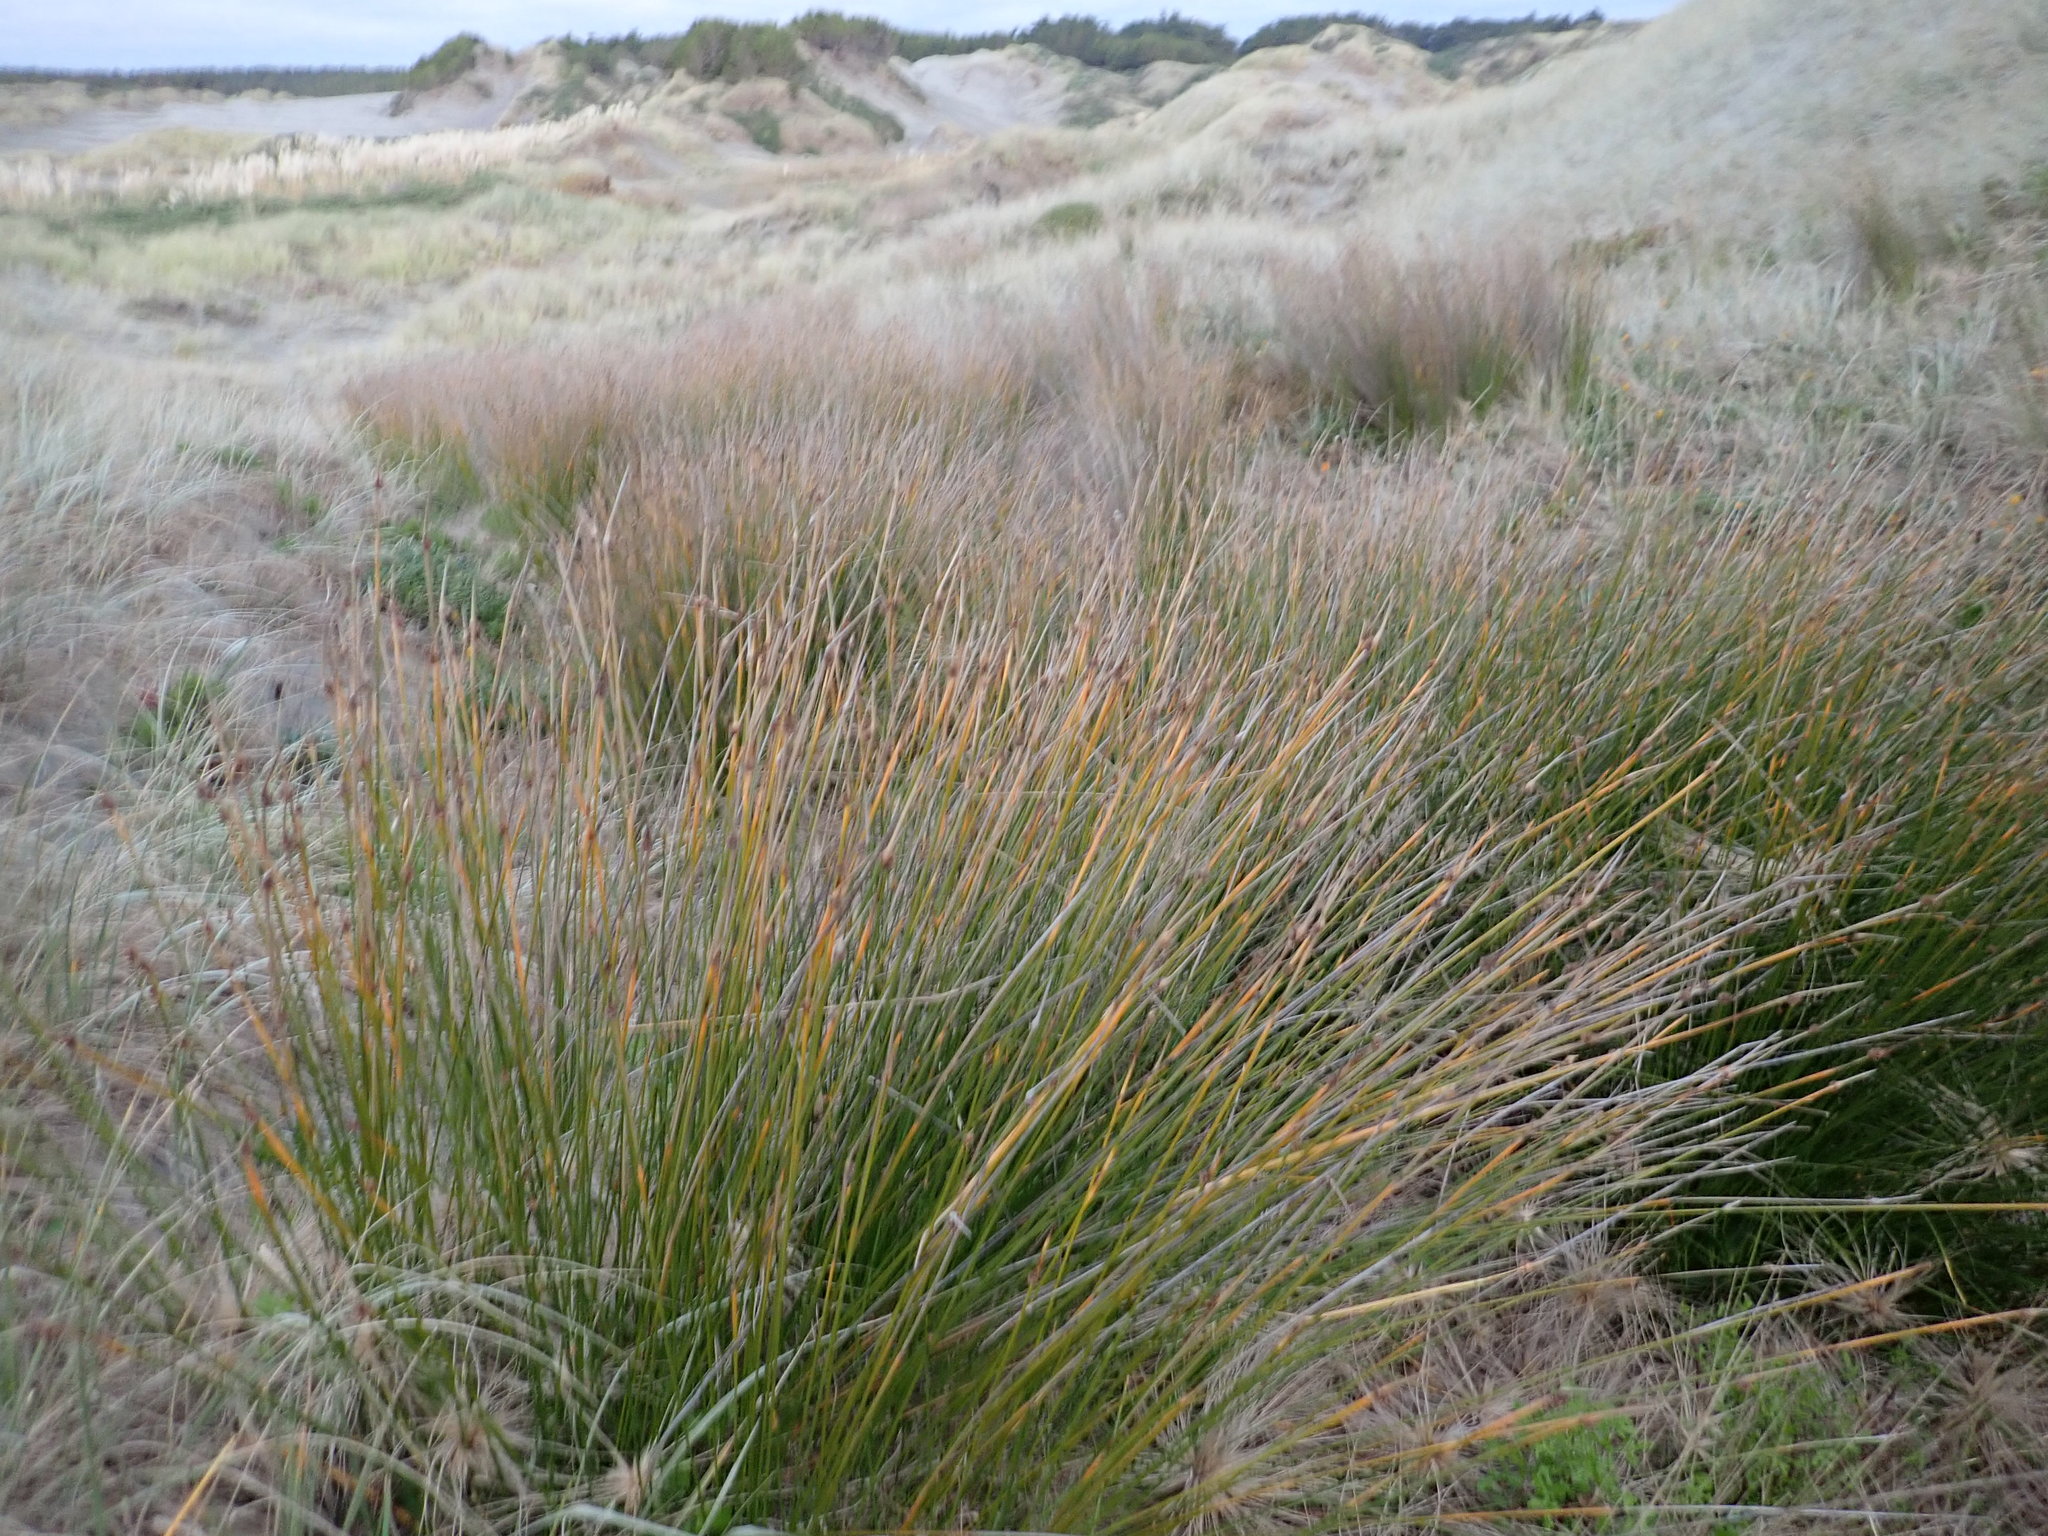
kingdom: Plantae
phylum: Tracheophyta
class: Liliopsida
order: Poales
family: Cyperaceae
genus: Ficinia
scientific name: Ficinia nodosa
